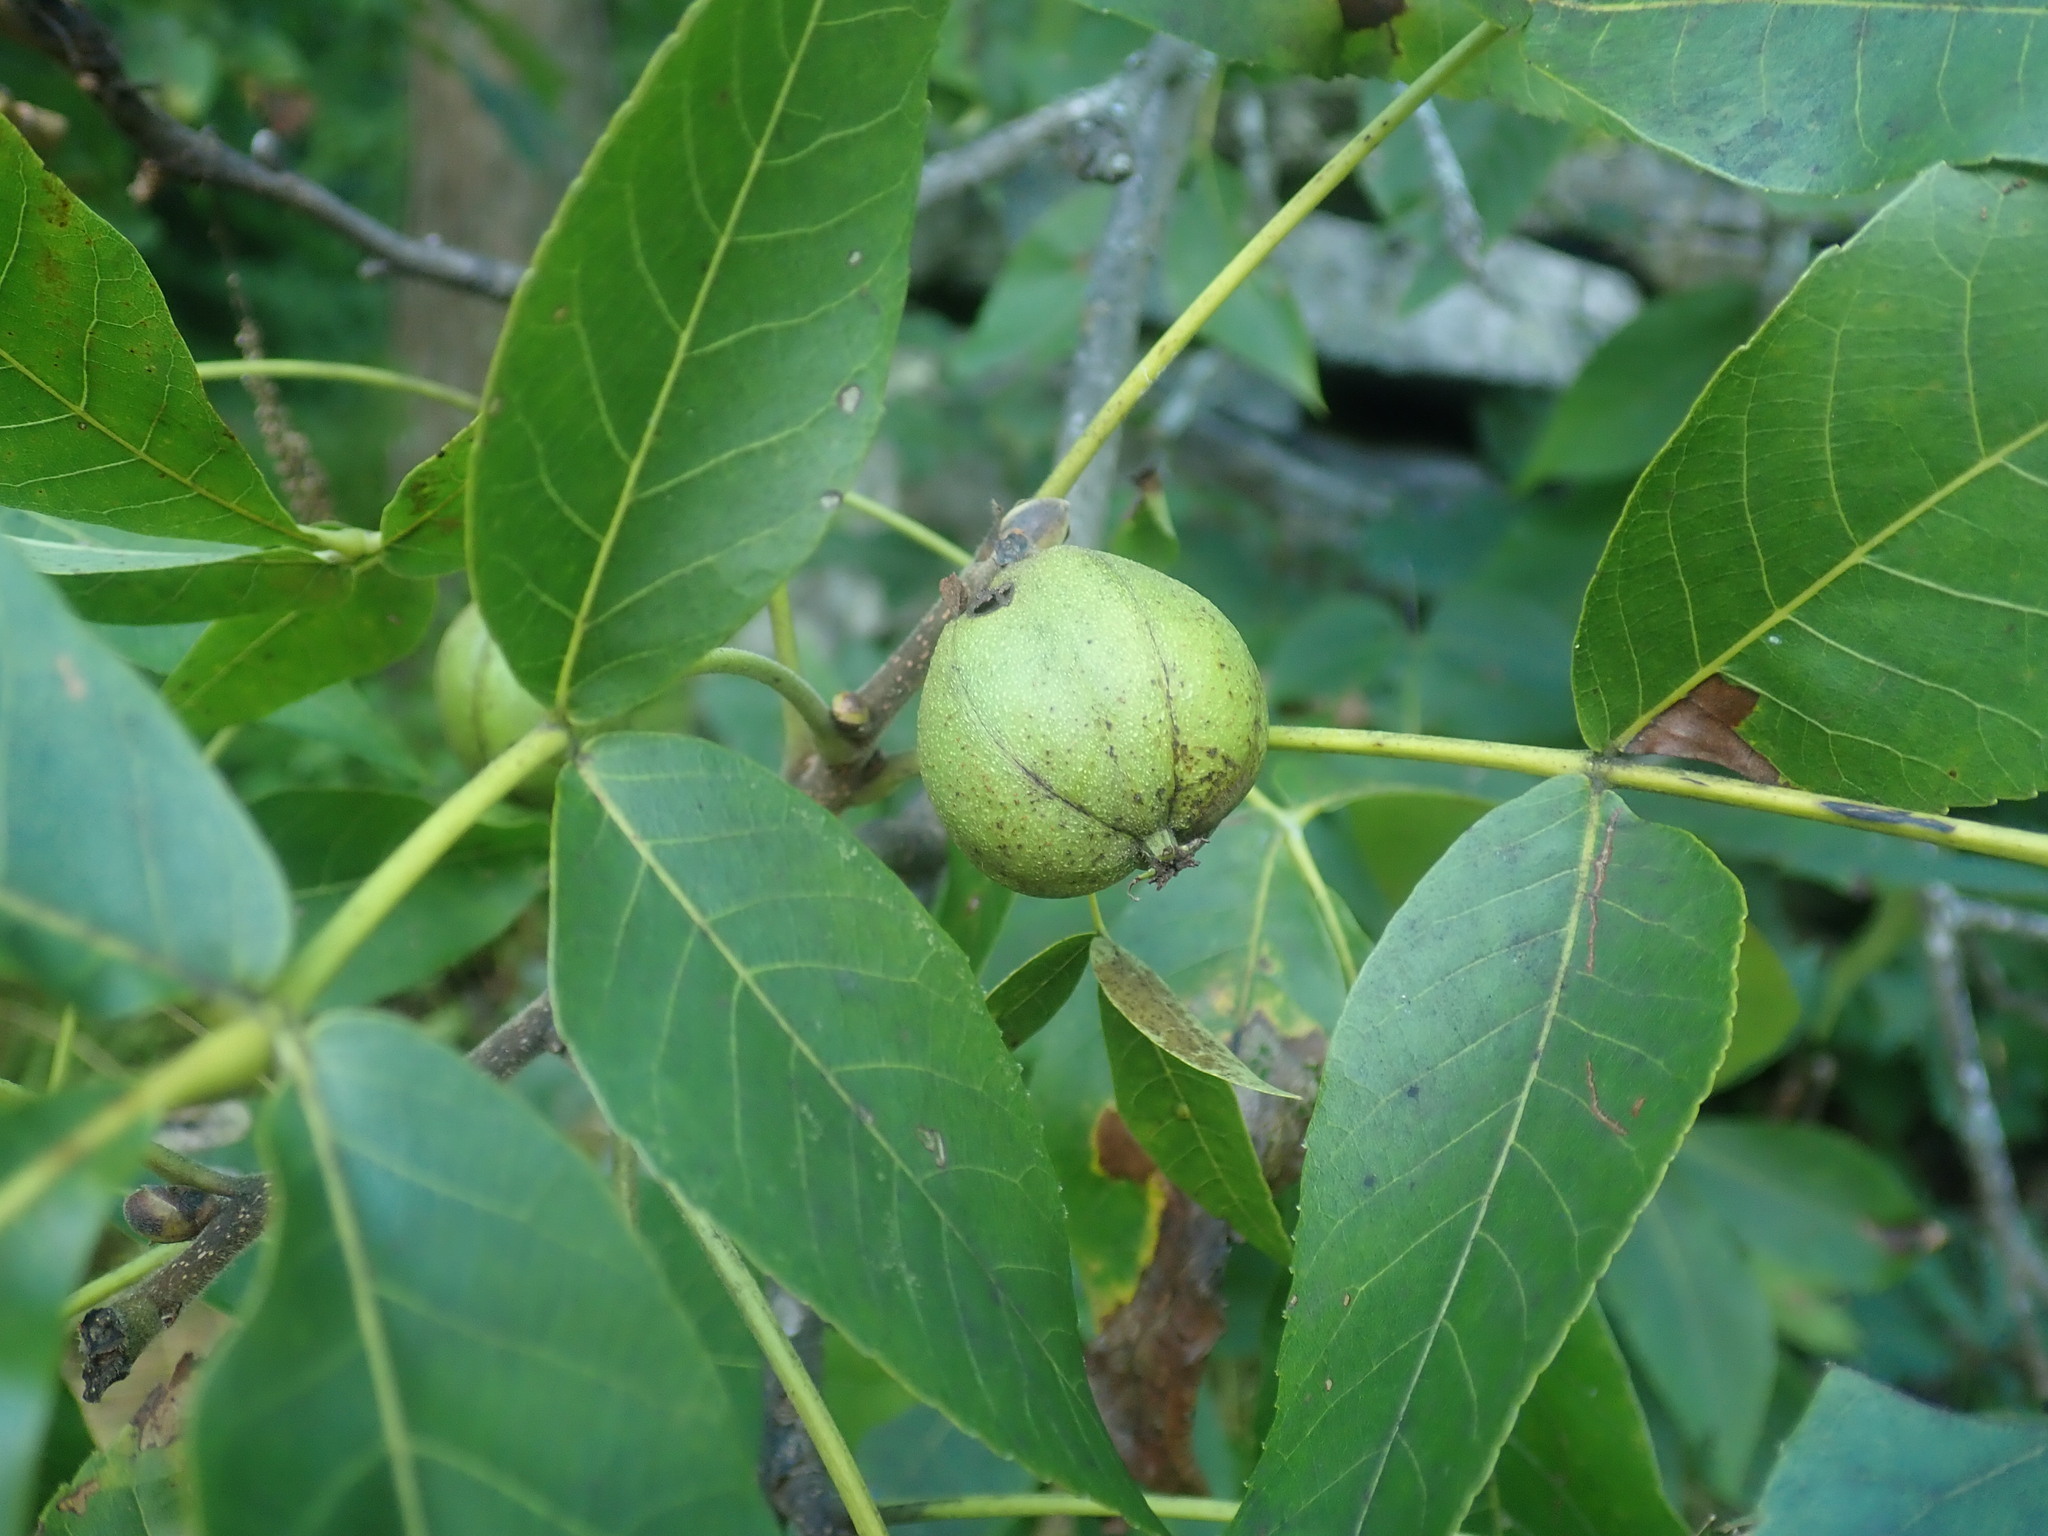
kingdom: Plantae
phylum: Tracheophyta
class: Magnoliopsida
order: Fagales
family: Juglandaceae
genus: Carya
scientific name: Carya ovata
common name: Shagbark hickory
